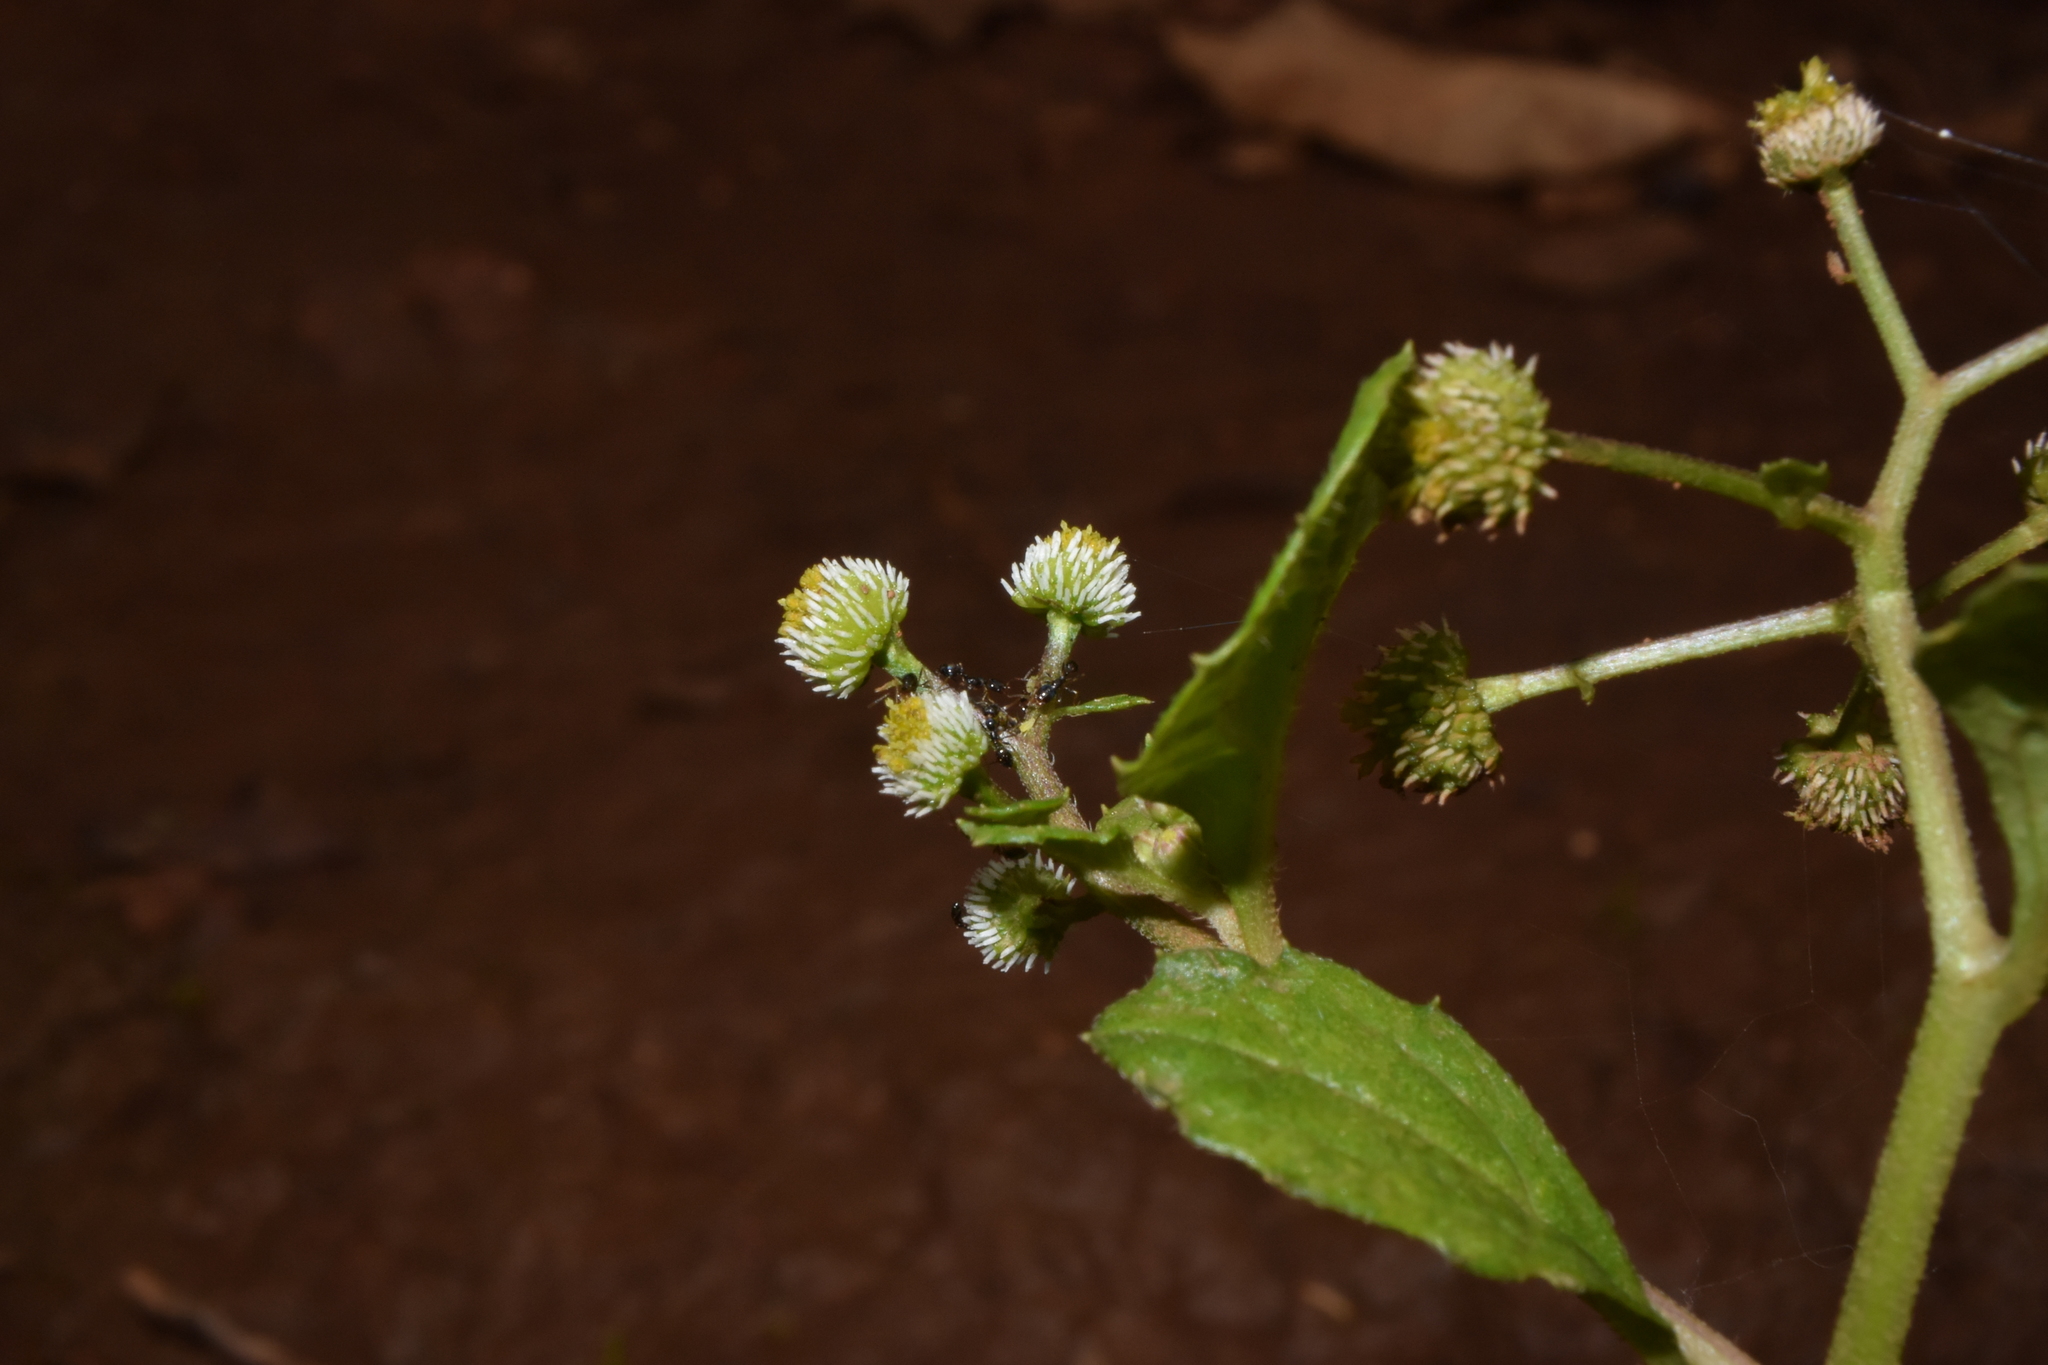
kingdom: Plantae
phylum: Tracheophyta
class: Magnoliopsida
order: Asterales
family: Asteraceae
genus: Dichrocephala
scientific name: Dichrocephala integrifolia
